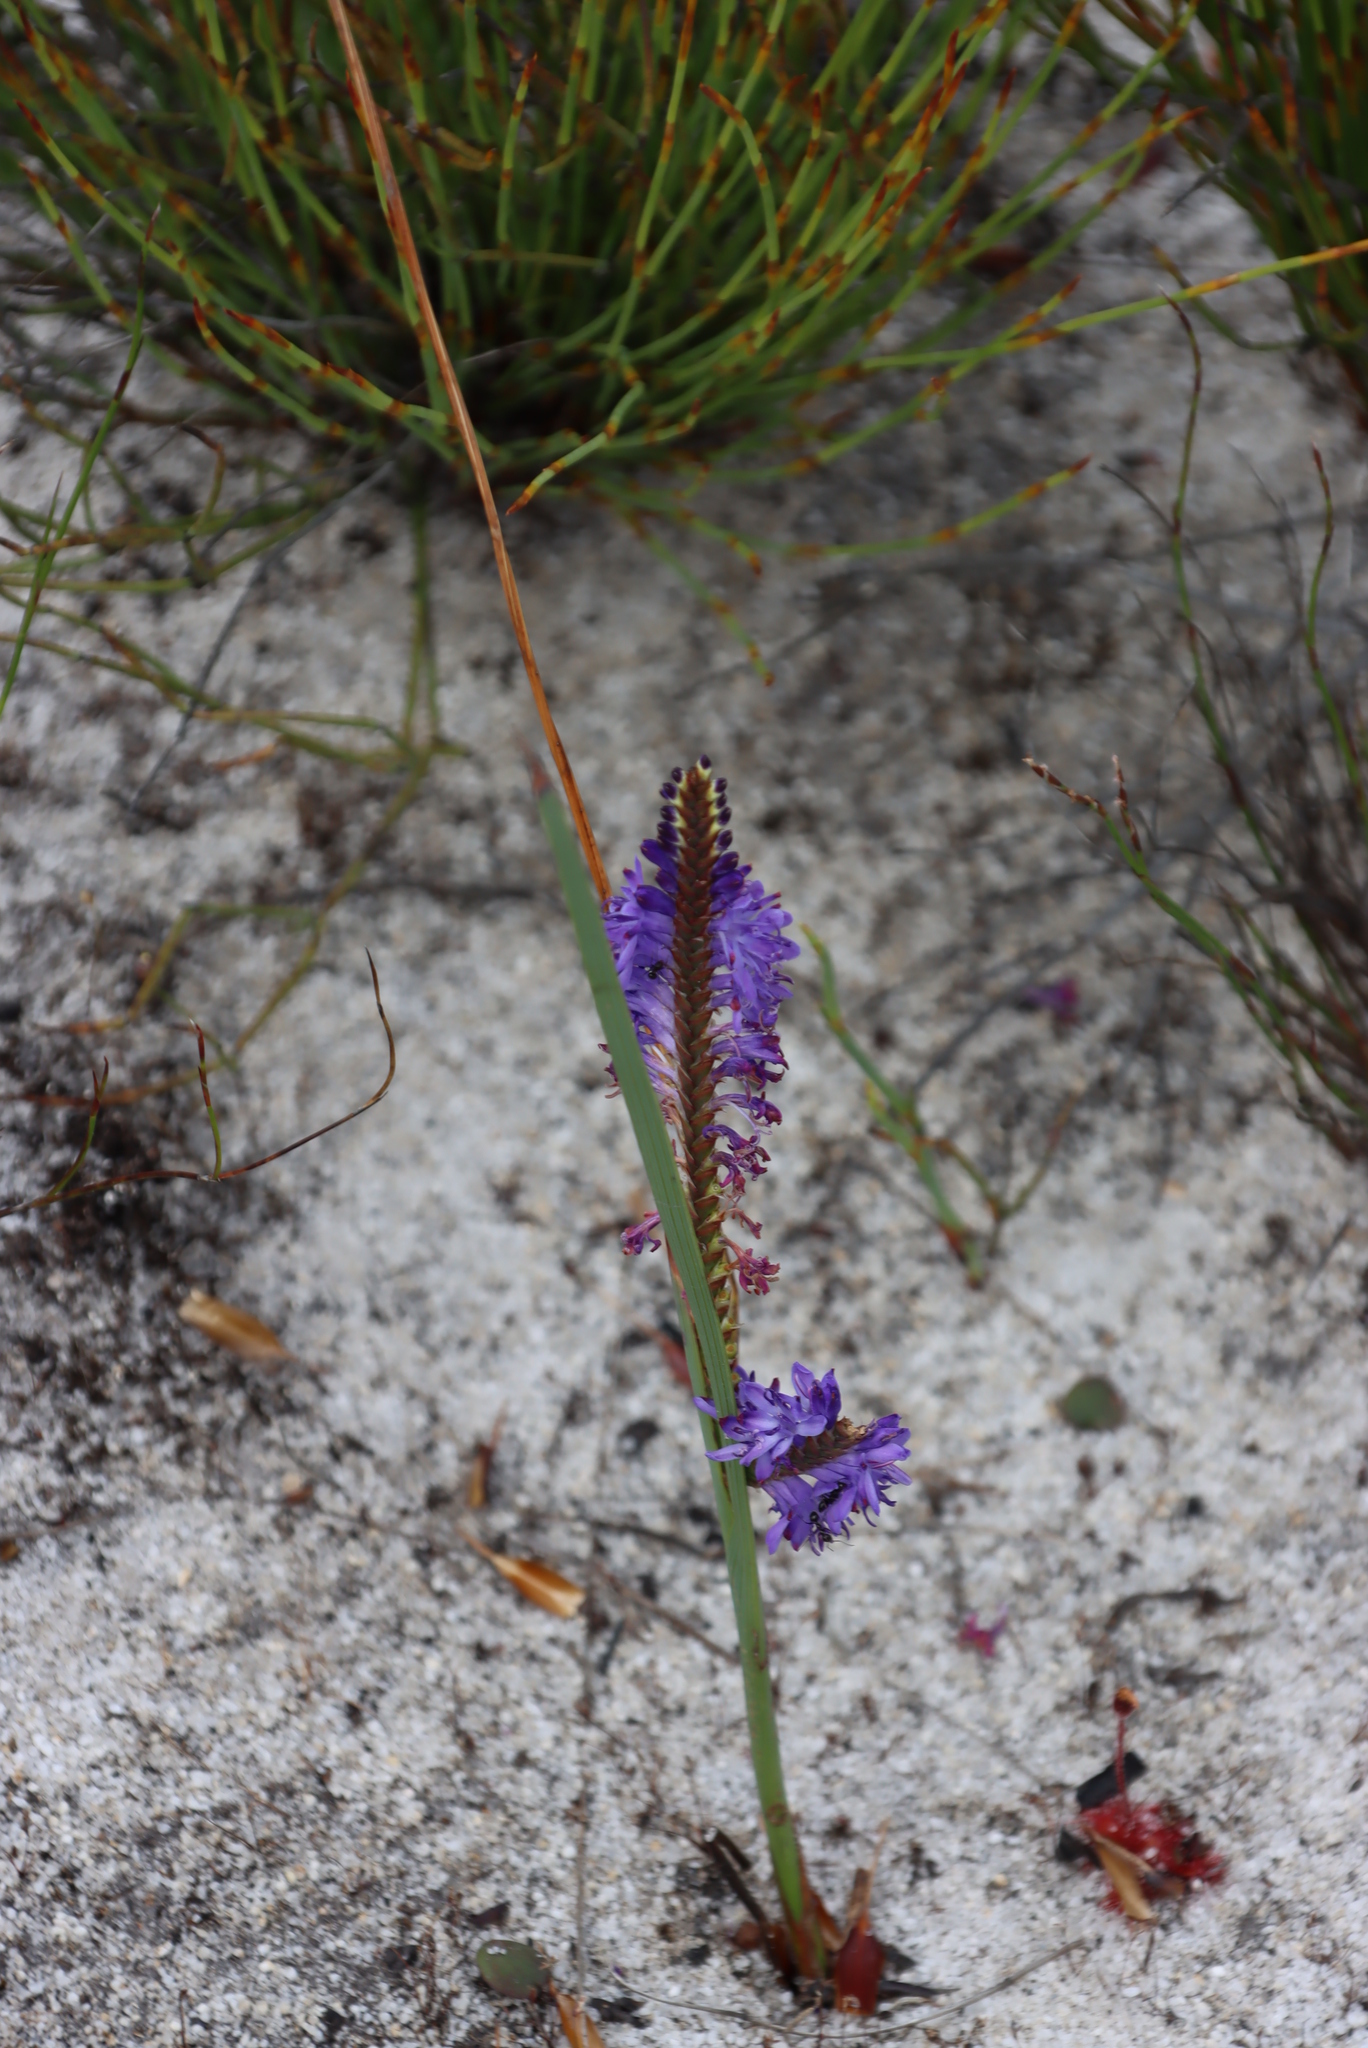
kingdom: Plantae
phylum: Tracheophyta
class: Liliopsida
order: Asparagales
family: Iridaceae
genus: Micranthus
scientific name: Micranthus alopecuroides
